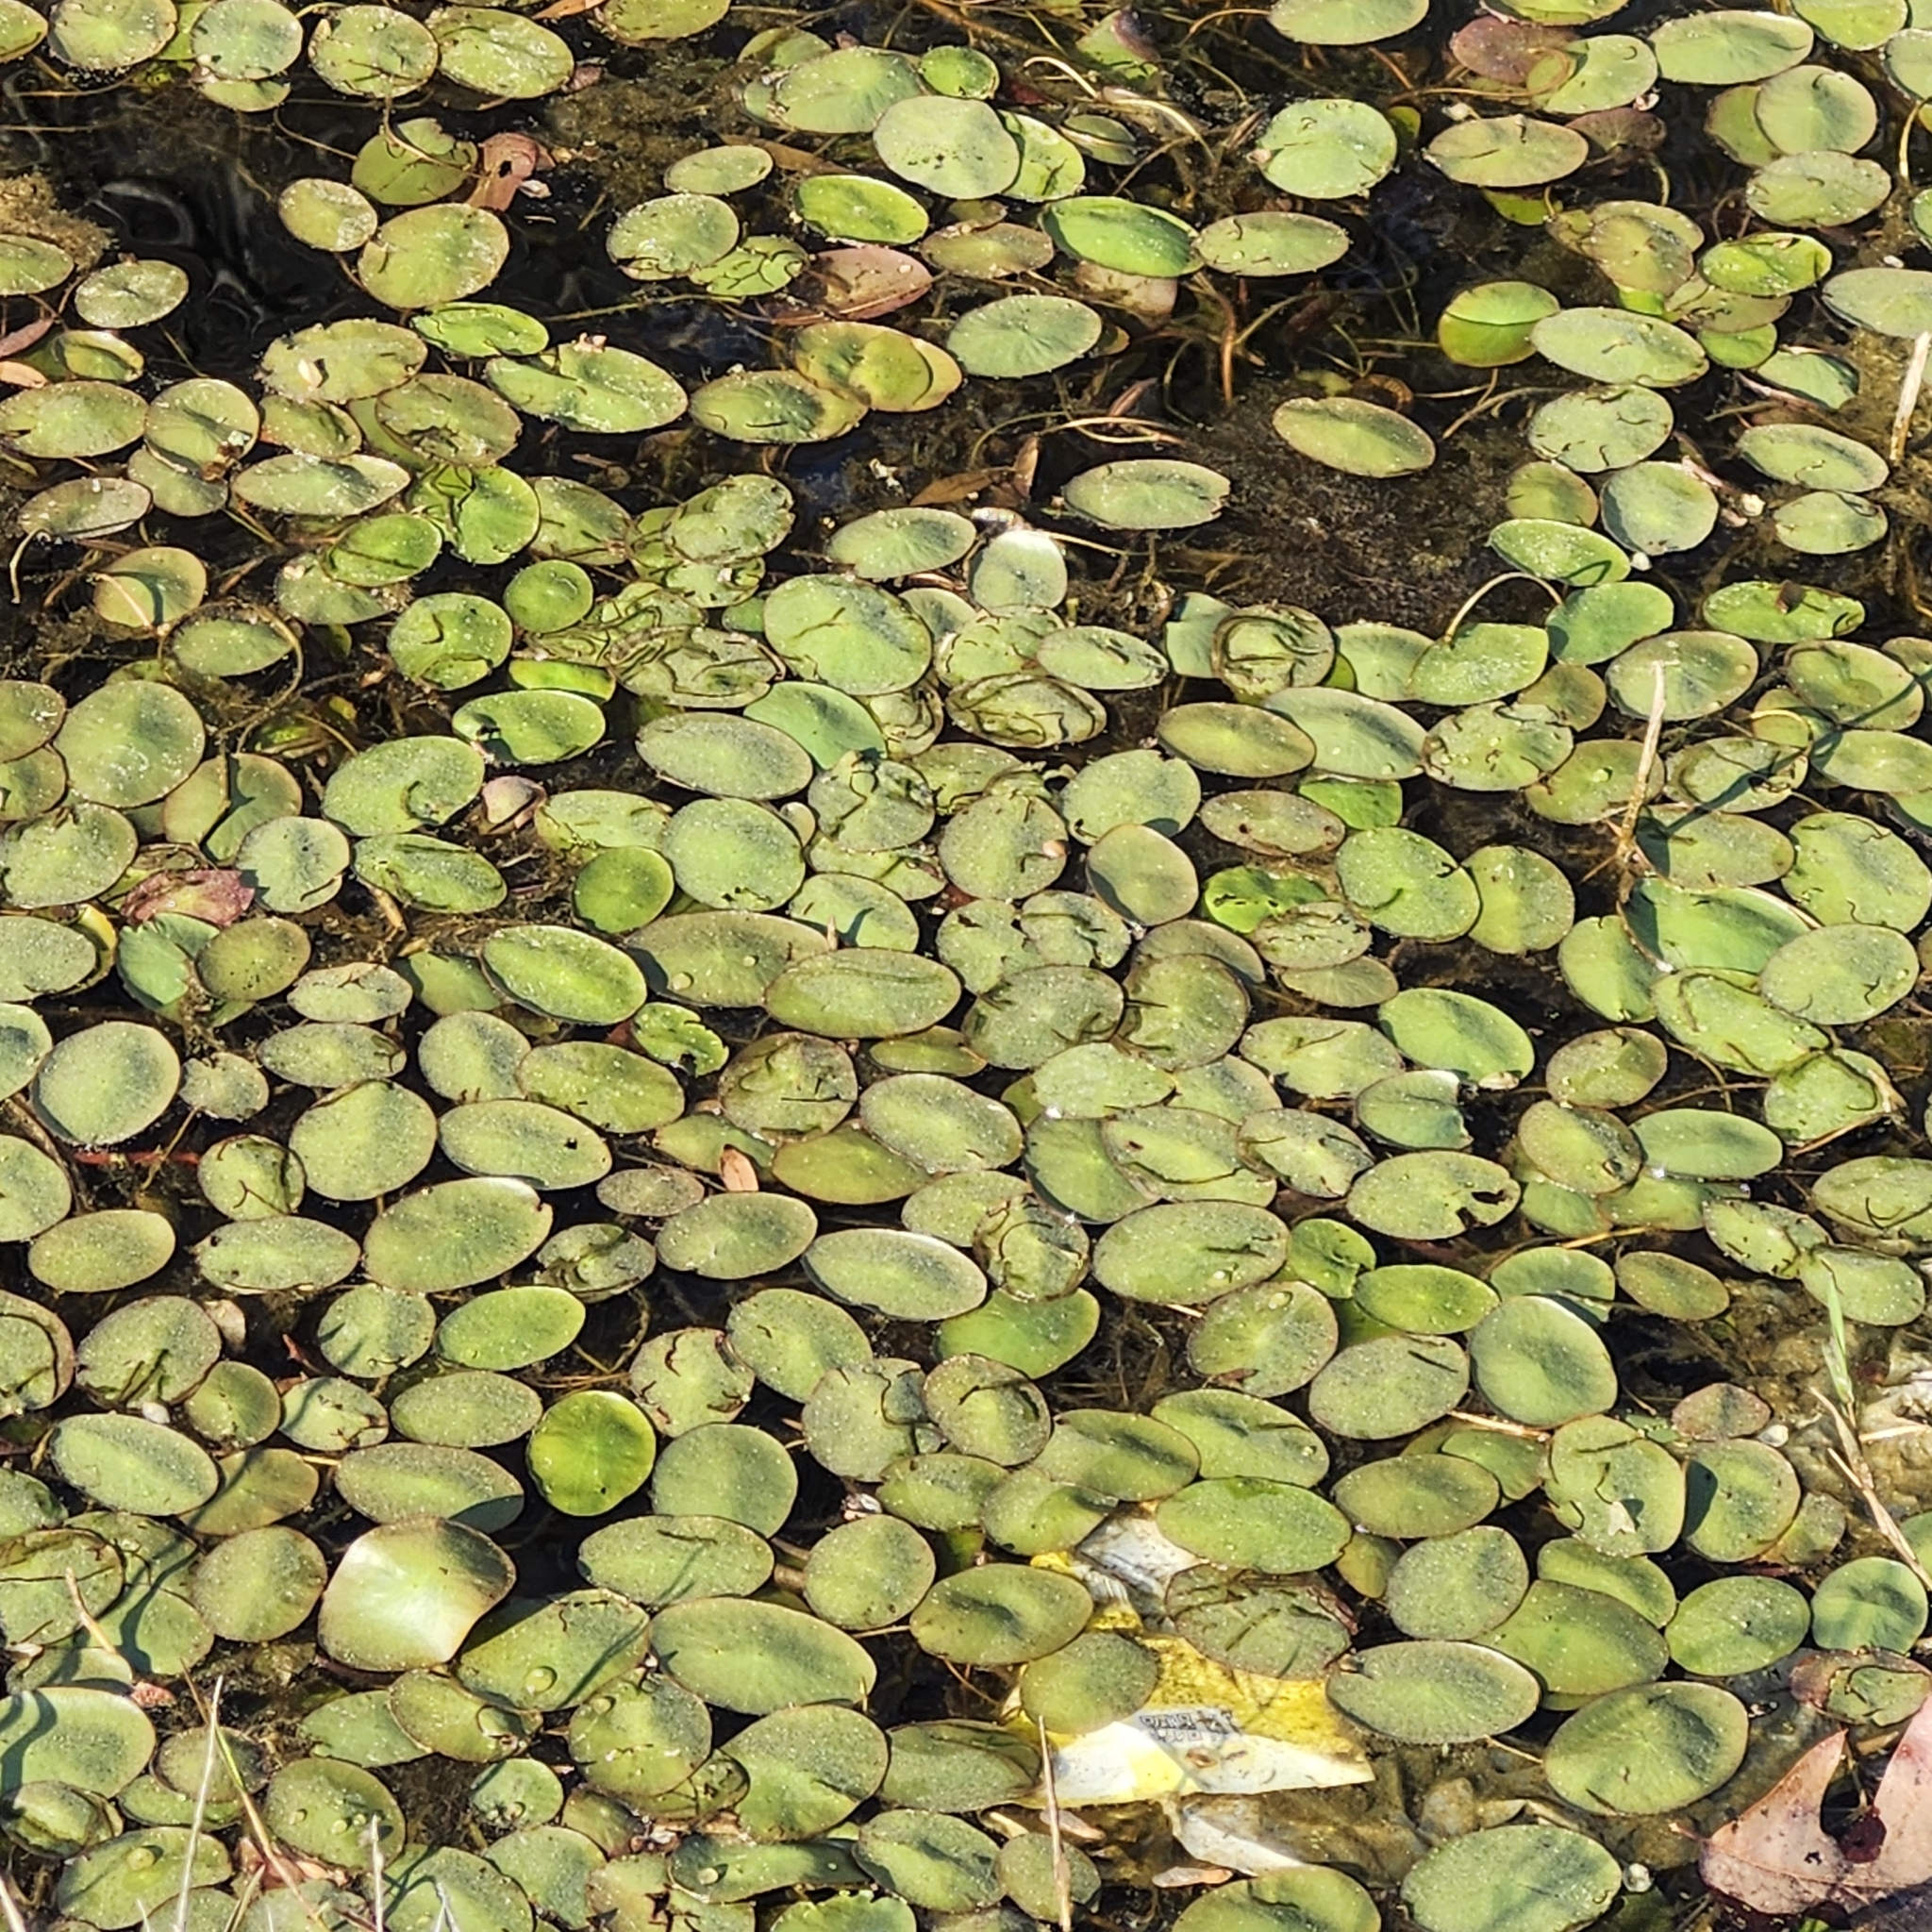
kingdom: Plantae
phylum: Tracheophyta
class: Magnoliopsida
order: Nymphaeales
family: Cabombaceae
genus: Brasenia
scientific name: Brasenia schreberi
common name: Water-shield
